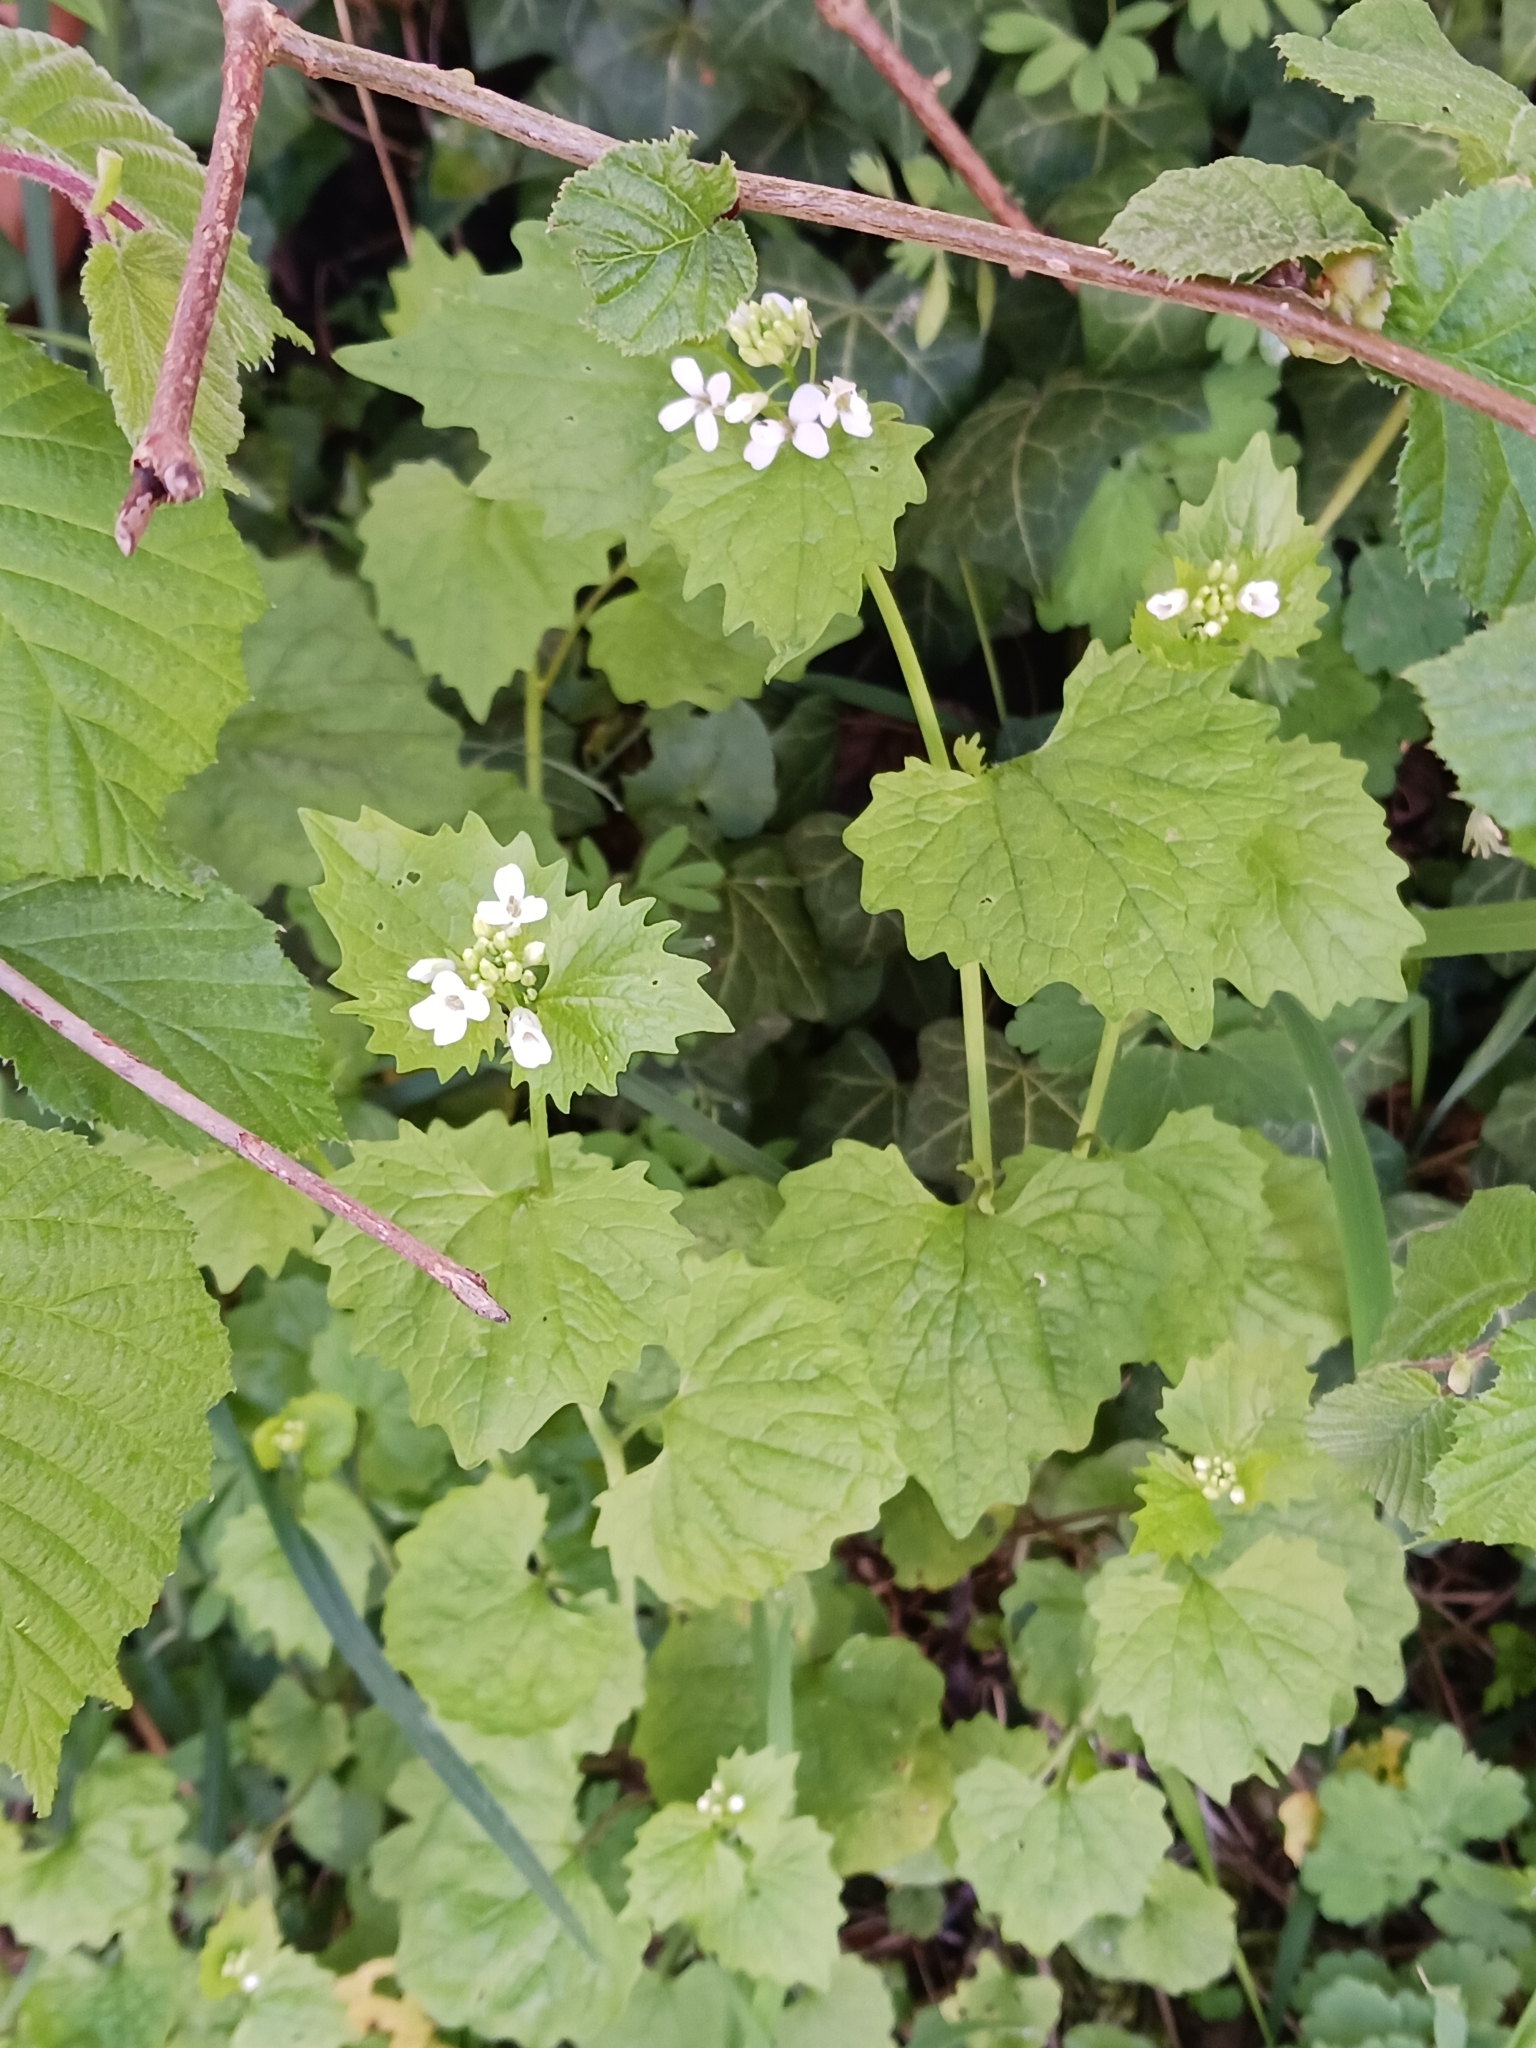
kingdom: Plantae
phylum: Tracheophyta
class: Magnoliopsida
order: Brassicales
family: Brassicaceae
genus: Alliaria
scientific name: Alliaria petiolata
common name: Garlic mustard
